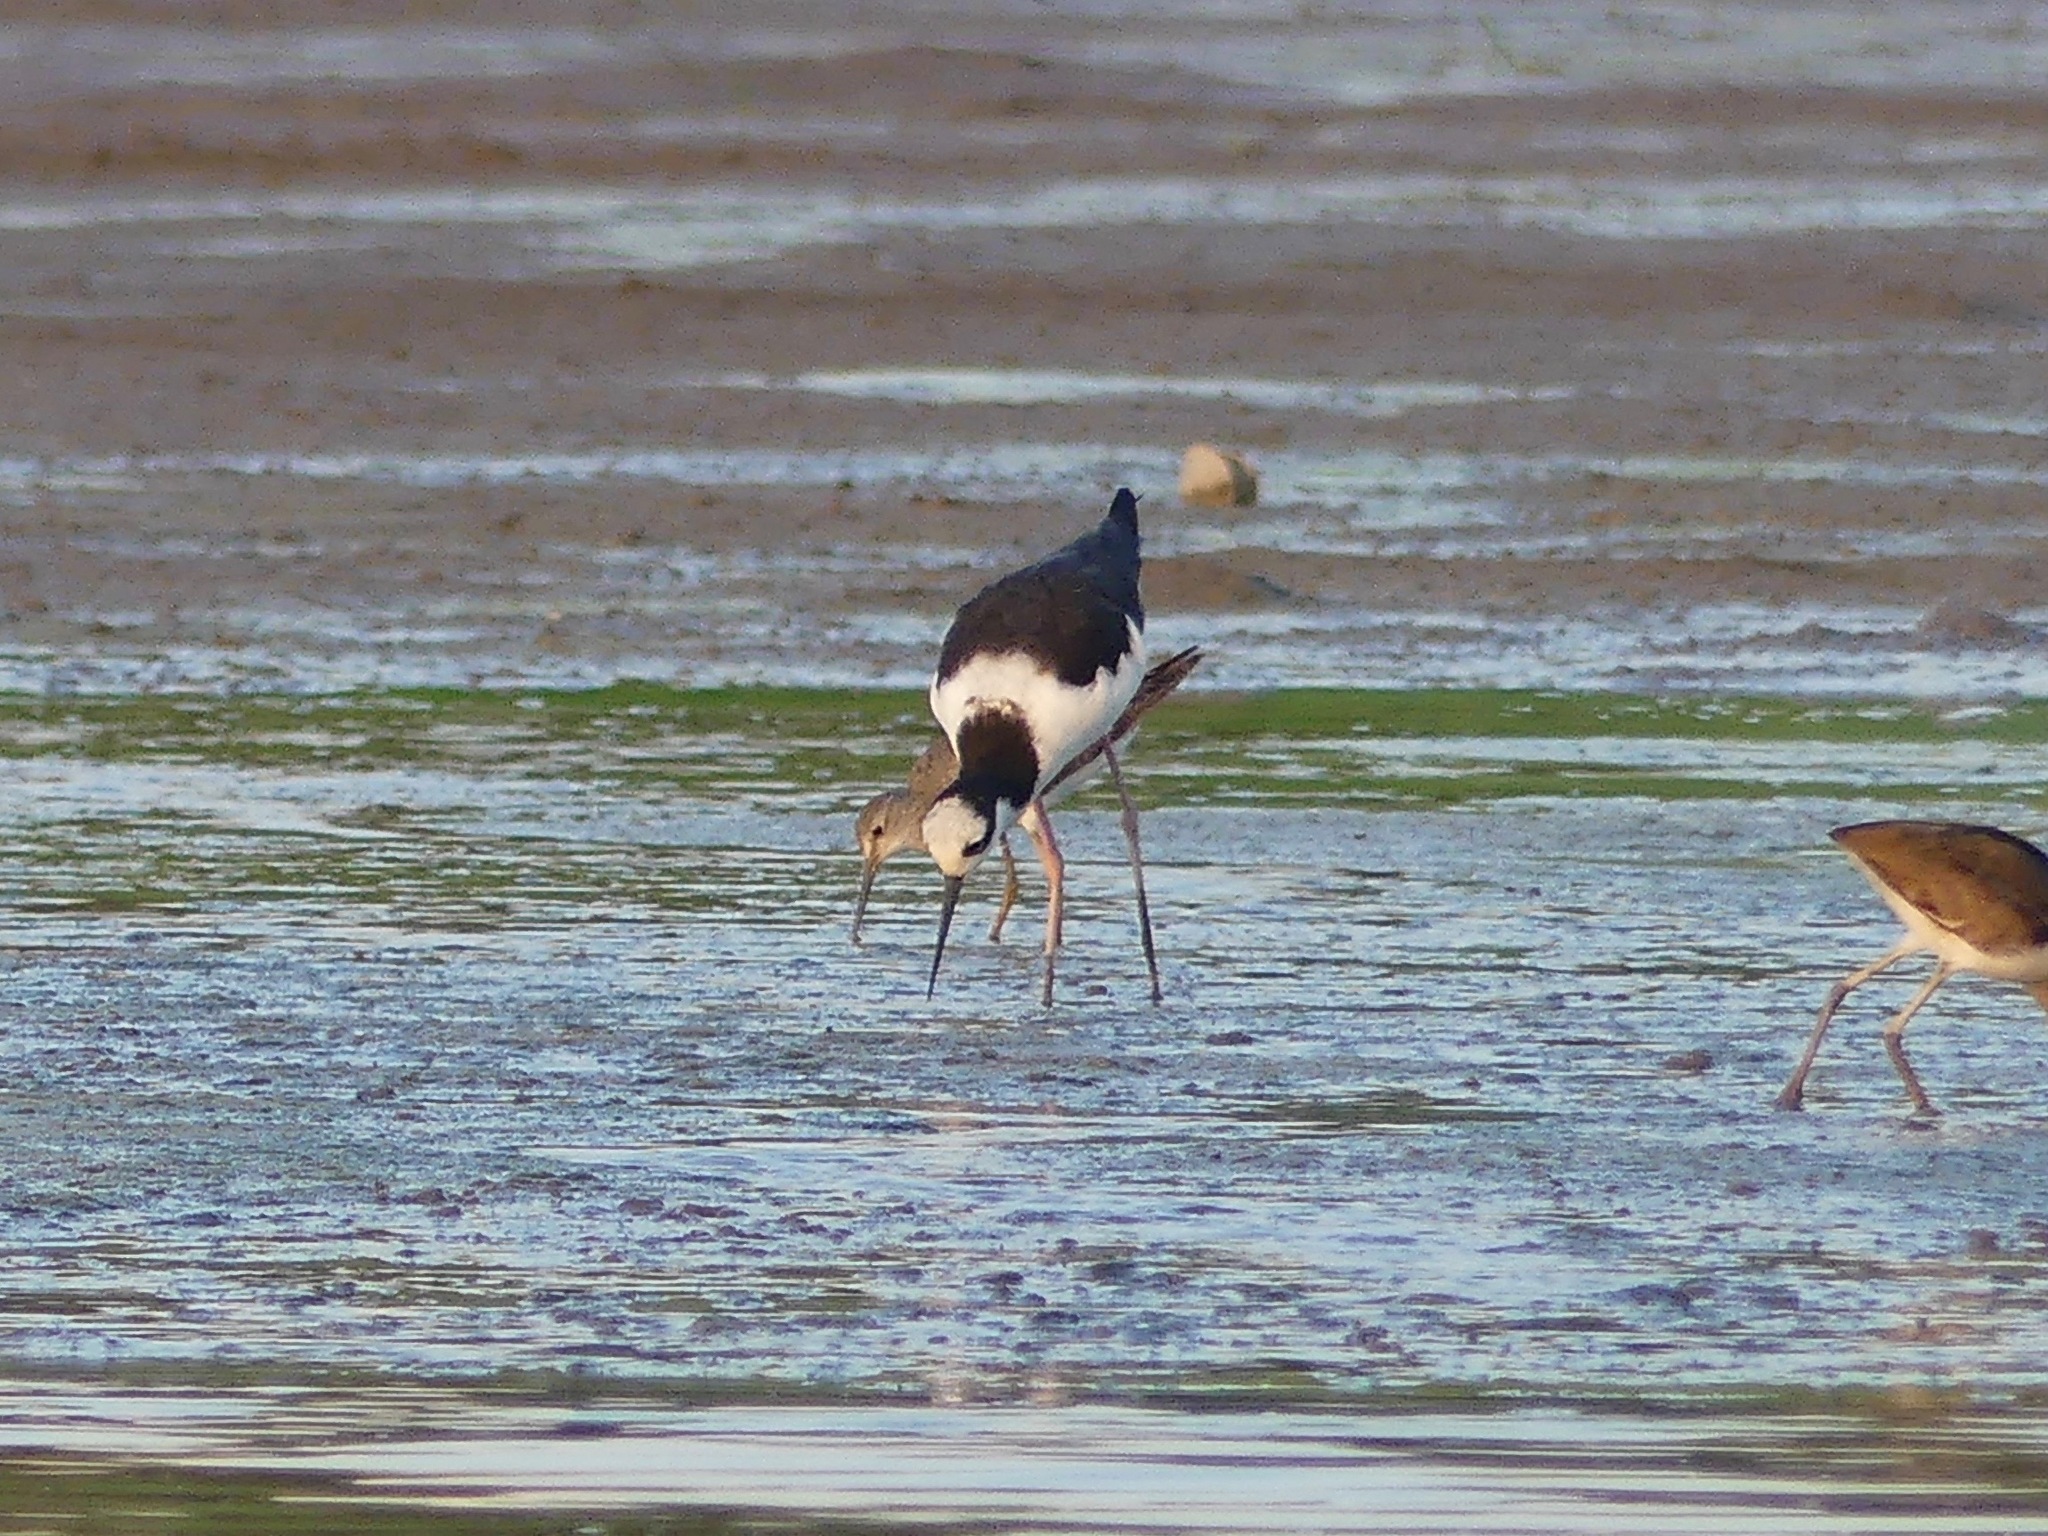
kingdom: Animalia
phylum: Chordata
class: Aves
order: Charadriiformes
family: Recurvirostridae
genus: Himantopus
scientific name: Himantopus mexicanus
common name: Black-necked stilt
